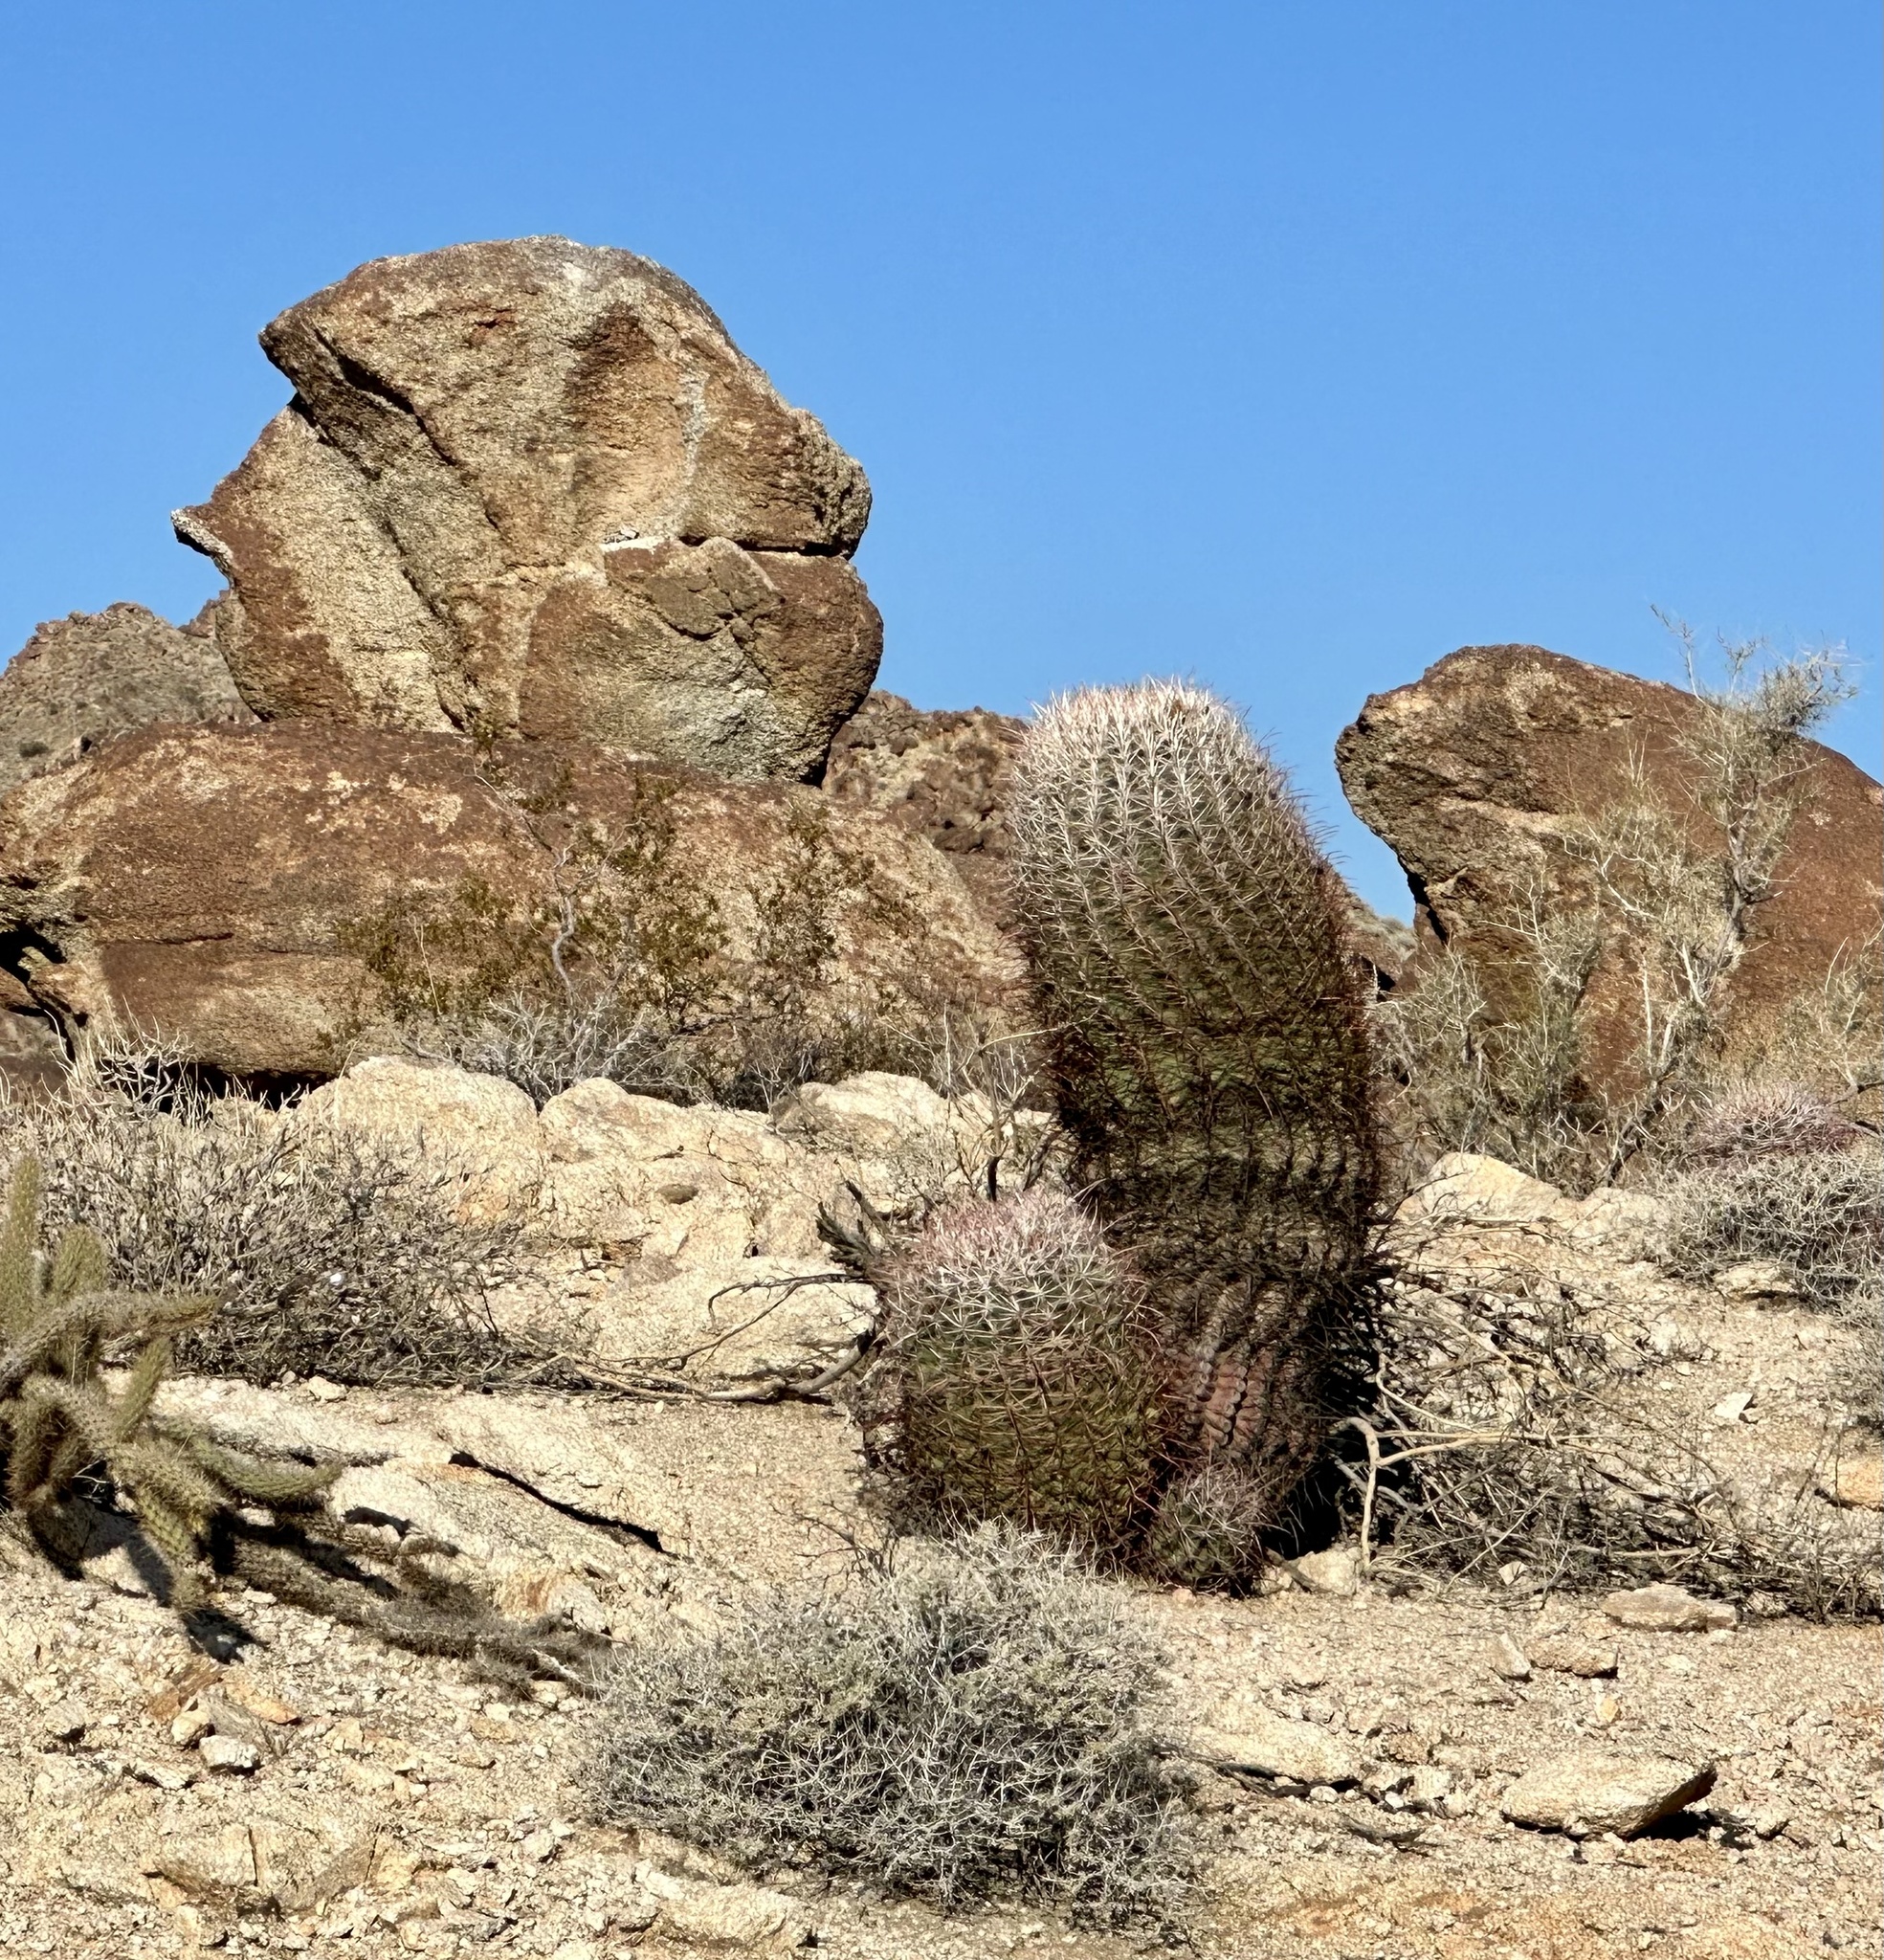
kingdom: Plantae
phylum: Tracheophyta
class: Magnoliopsida
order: Caryophyllales
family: Cactaceae
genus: Ferocactus
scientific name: Ferocactus cylindraceus
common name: California barrel cactus
